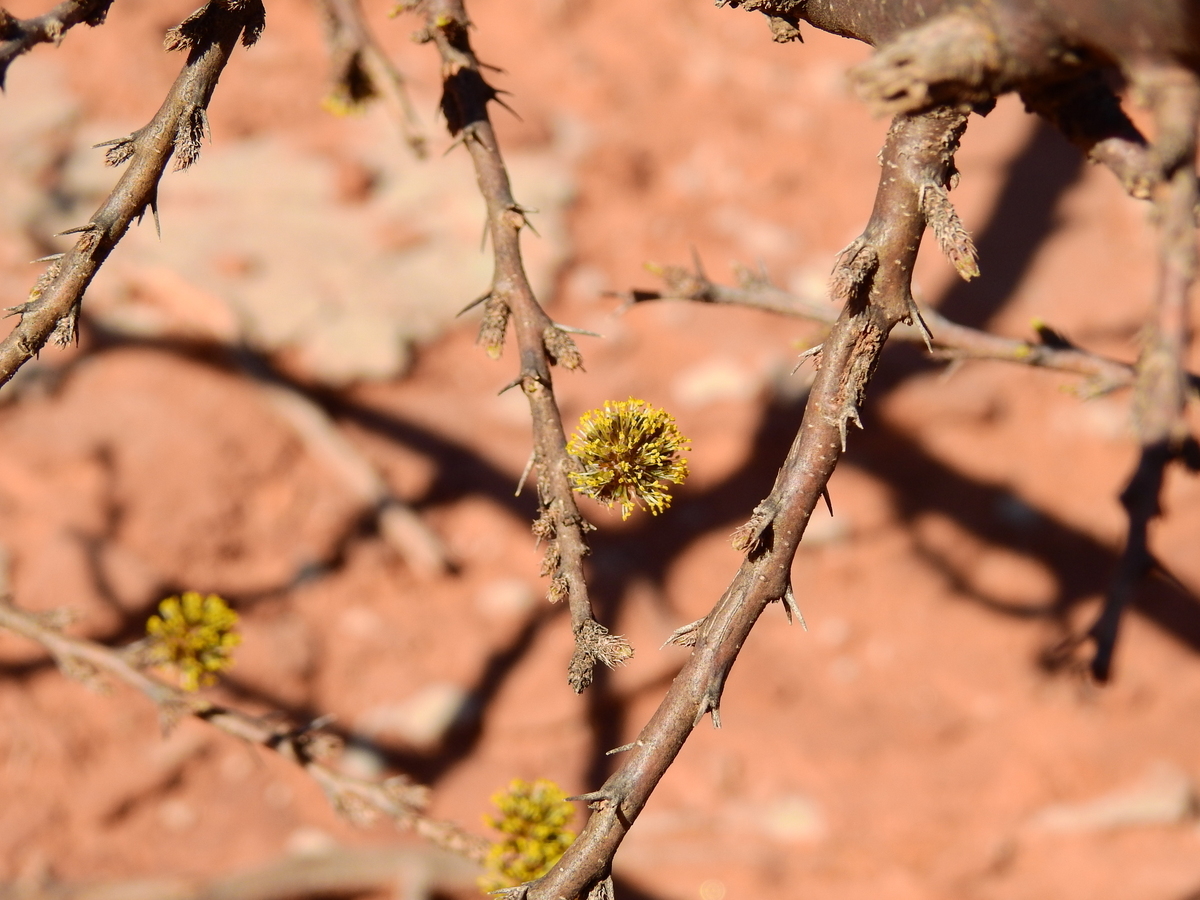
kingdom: Plantae
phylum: Tracheophyta
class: Magnoliopsida
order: Fabales
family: Fabaceae
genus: Mimozyganthus
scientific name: Mimozyganthus carinatus
